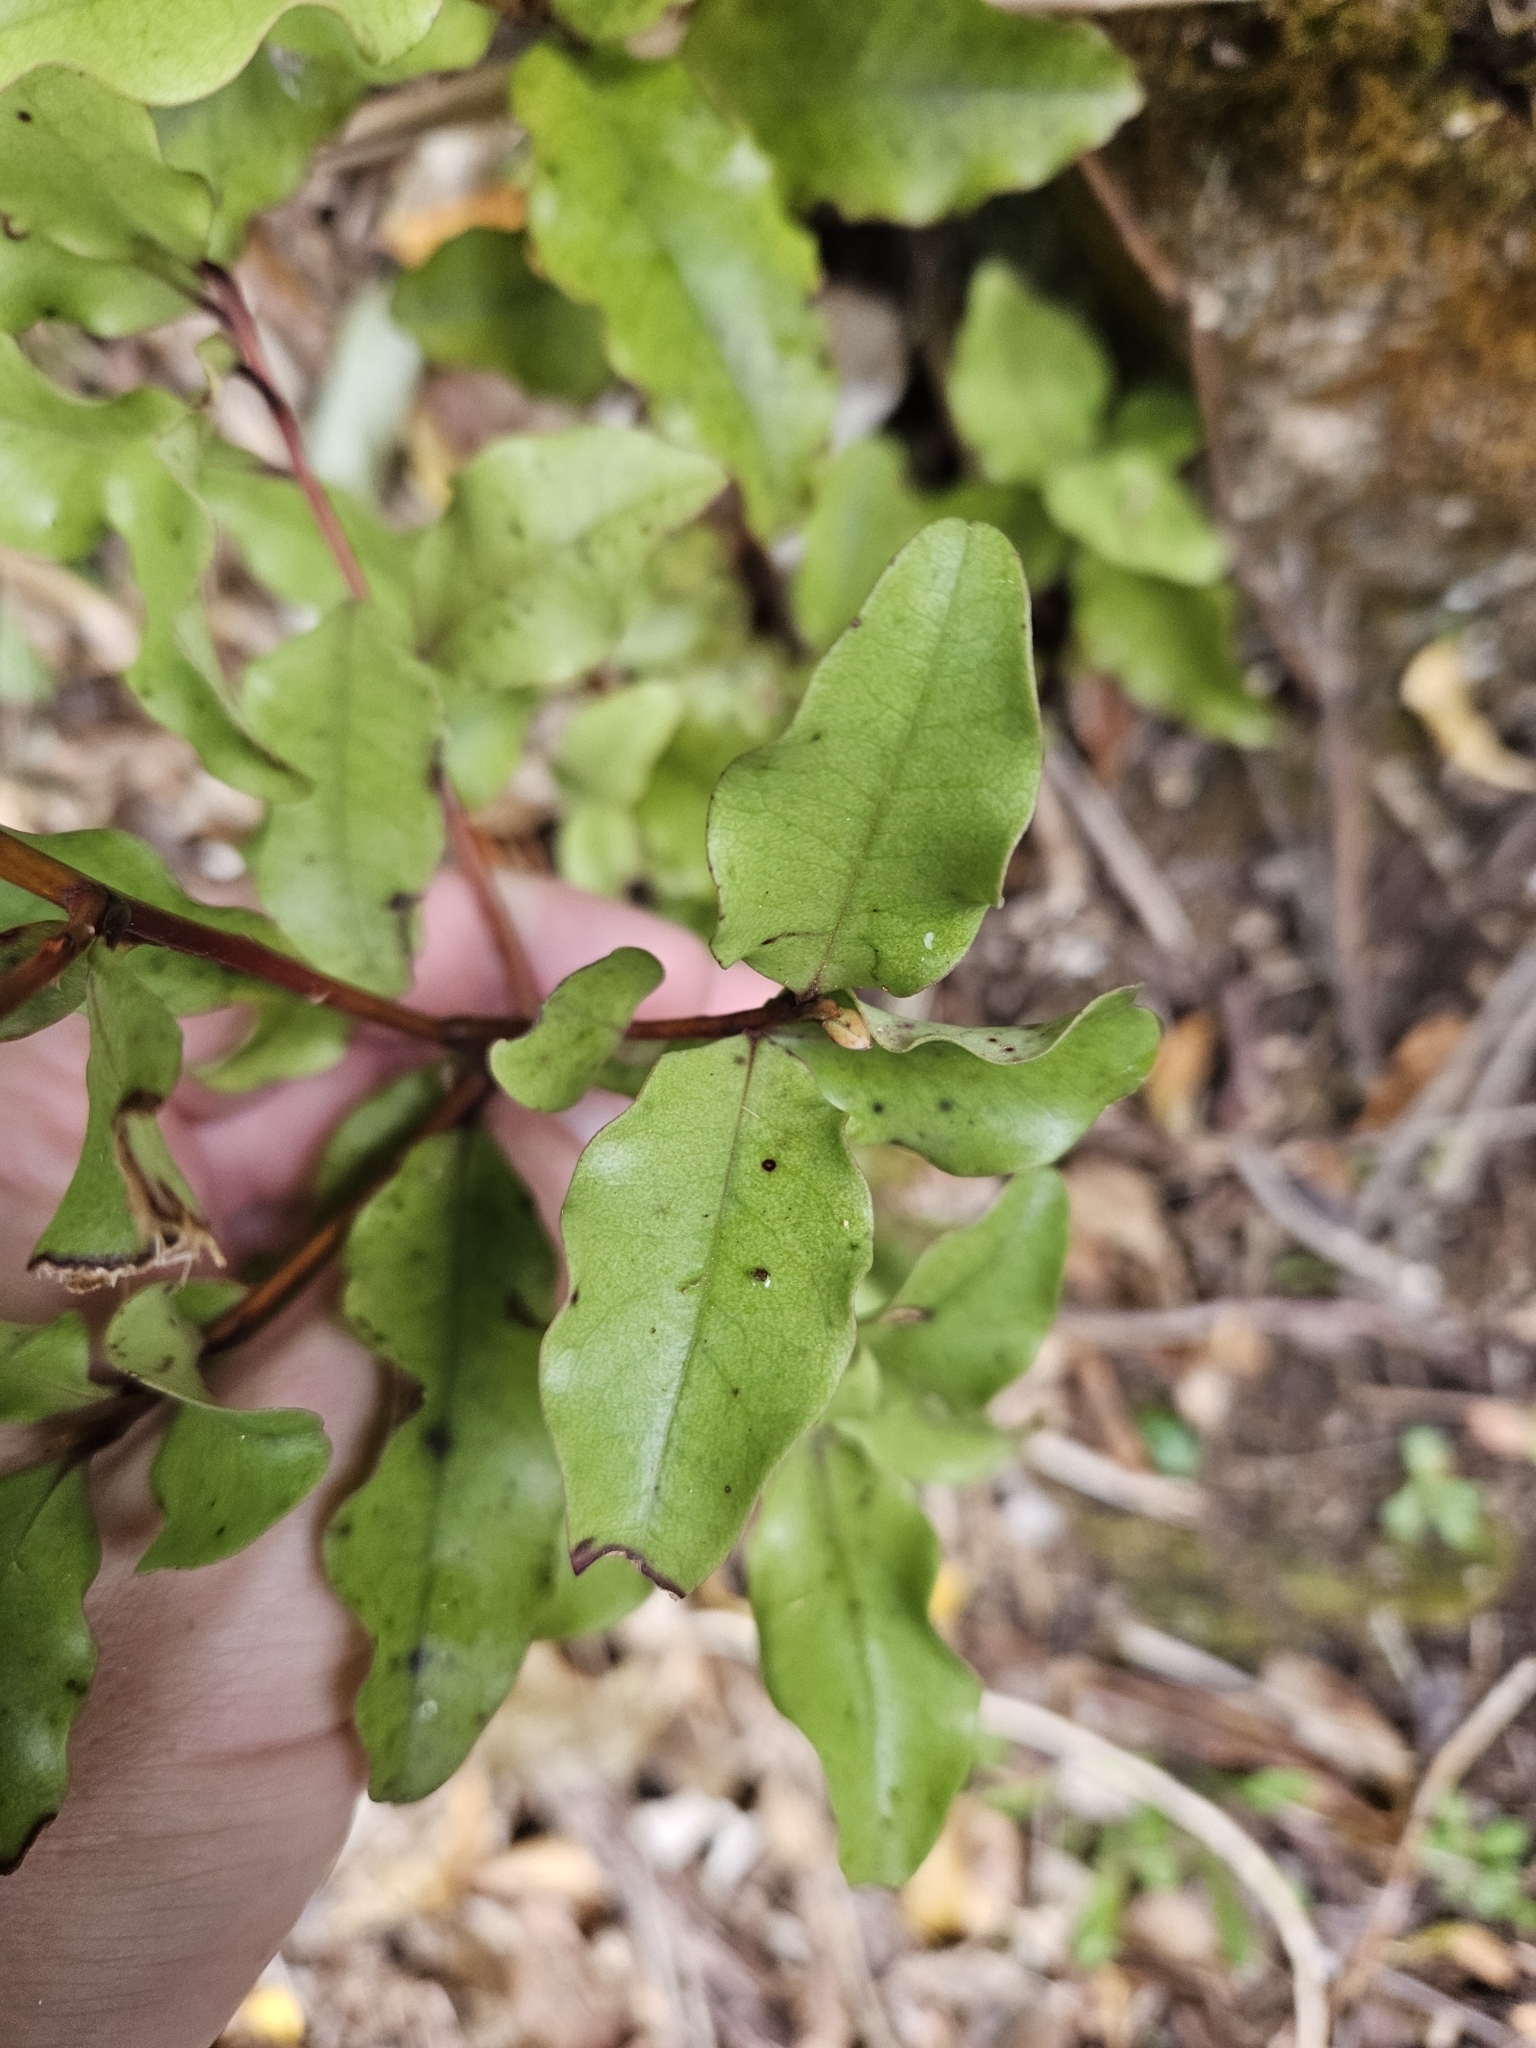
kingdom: Plantae
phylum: Tracheophyta
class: Magnoliopsida
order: Ericales
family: Primulaceae
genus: Myrsine
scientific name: Myrsine australis
